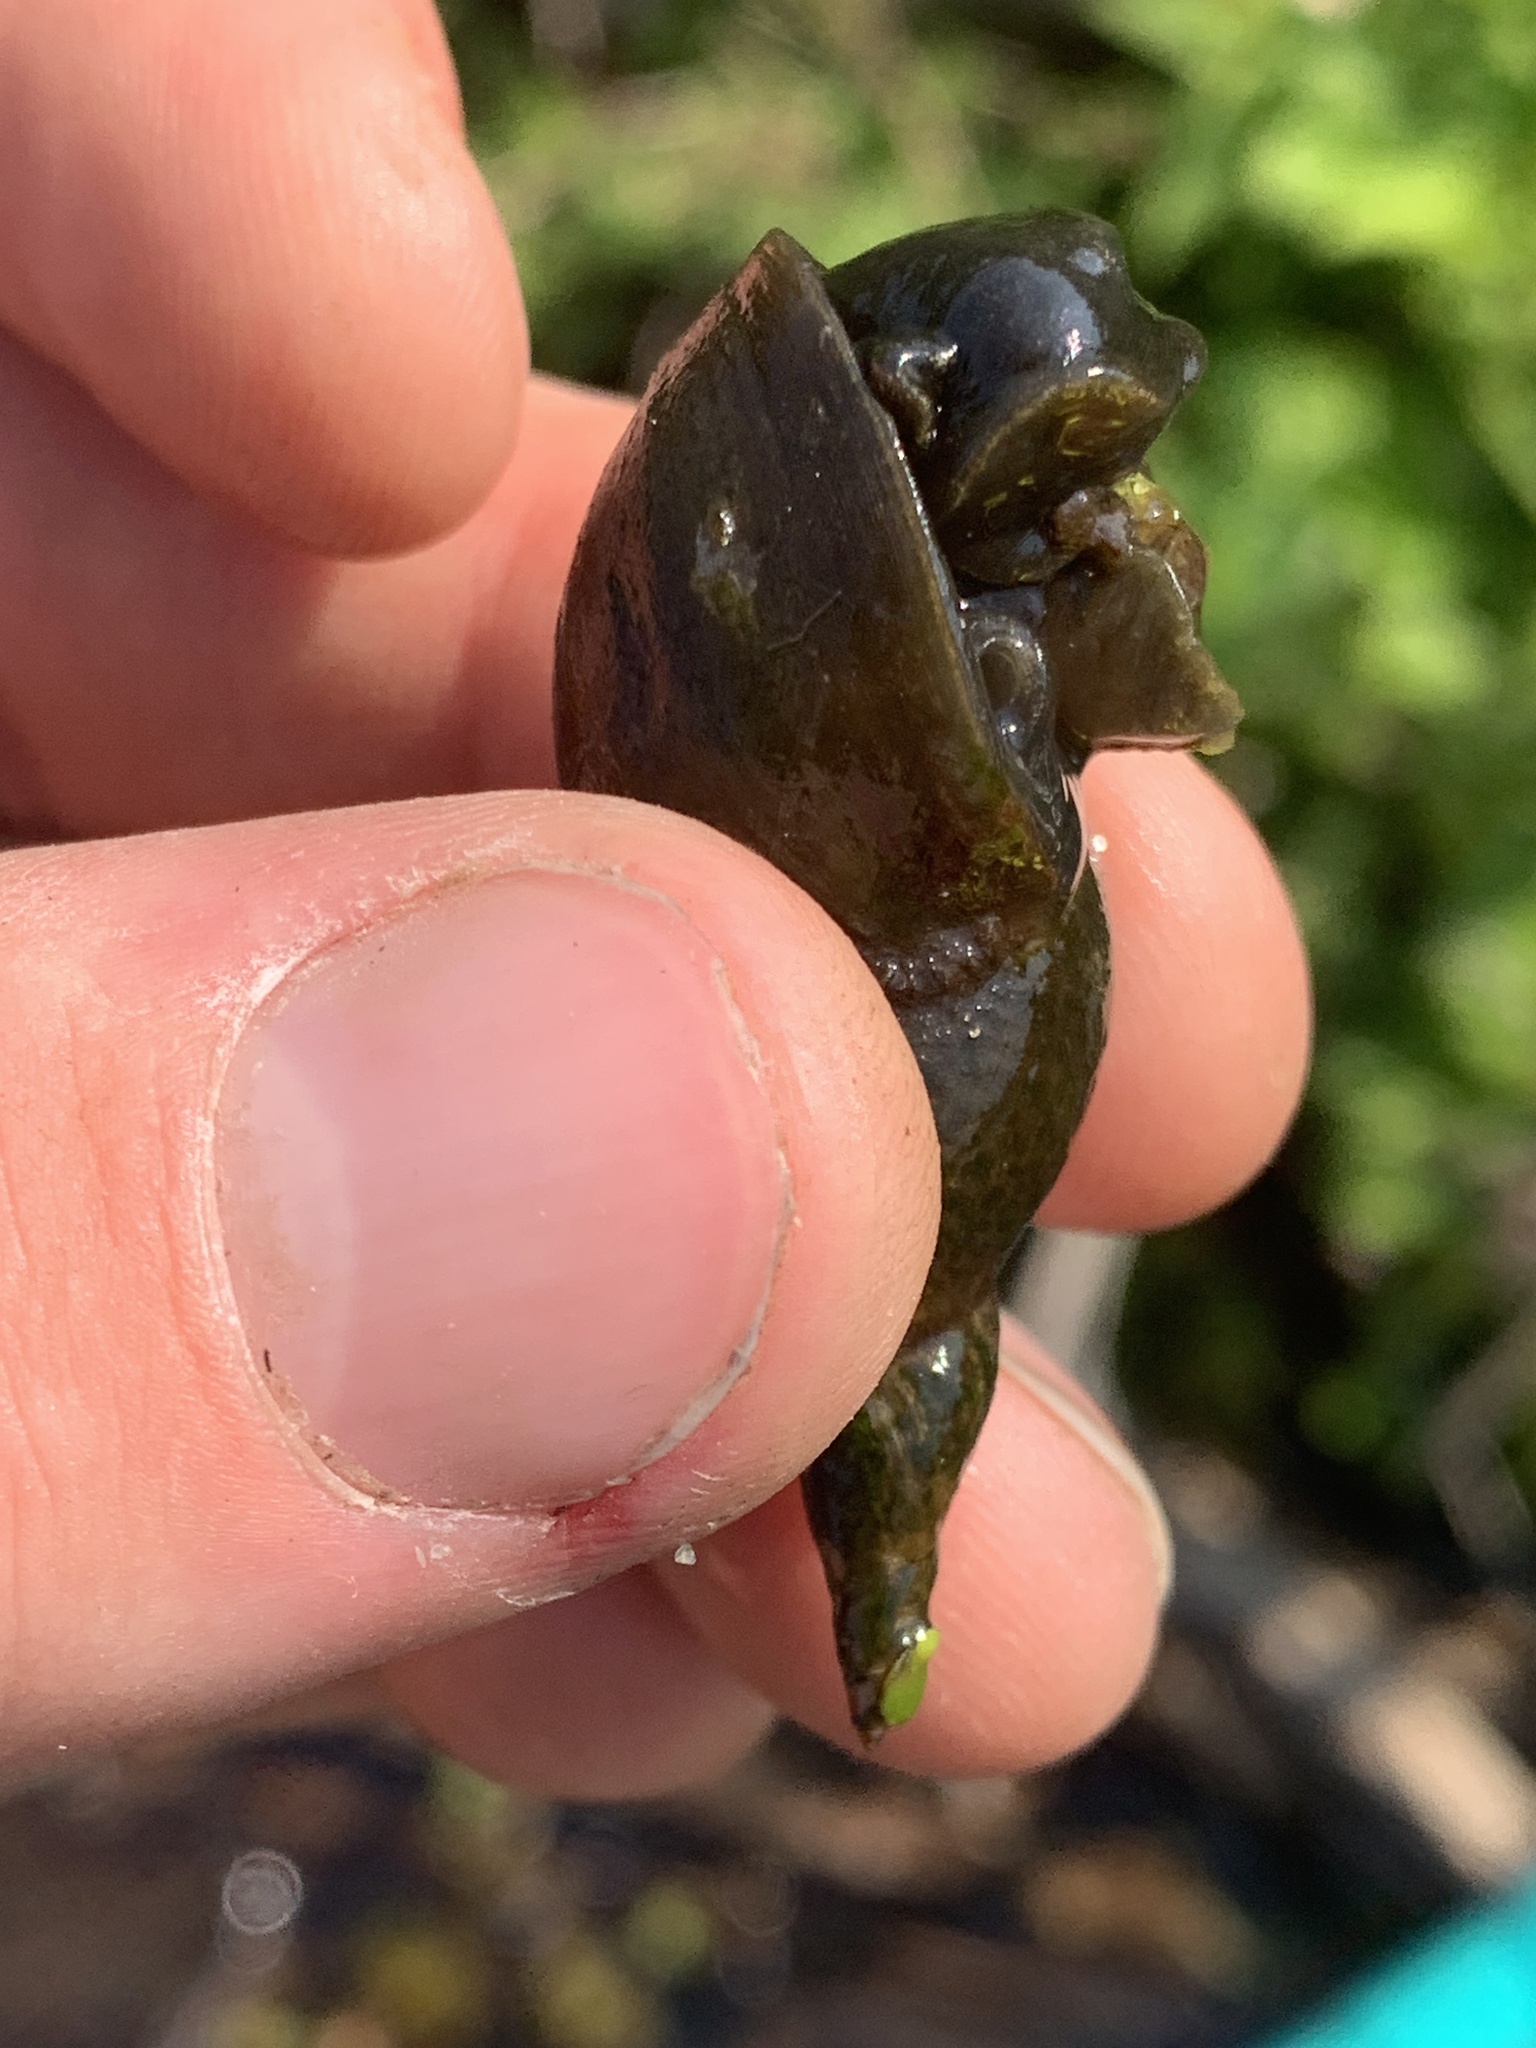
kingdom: Animalia
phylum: Mollusca
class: Gastropoda
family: Lymnaeidae
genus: Lymnaea
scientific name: Lymnaea stagnalis
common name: Great pond snail
